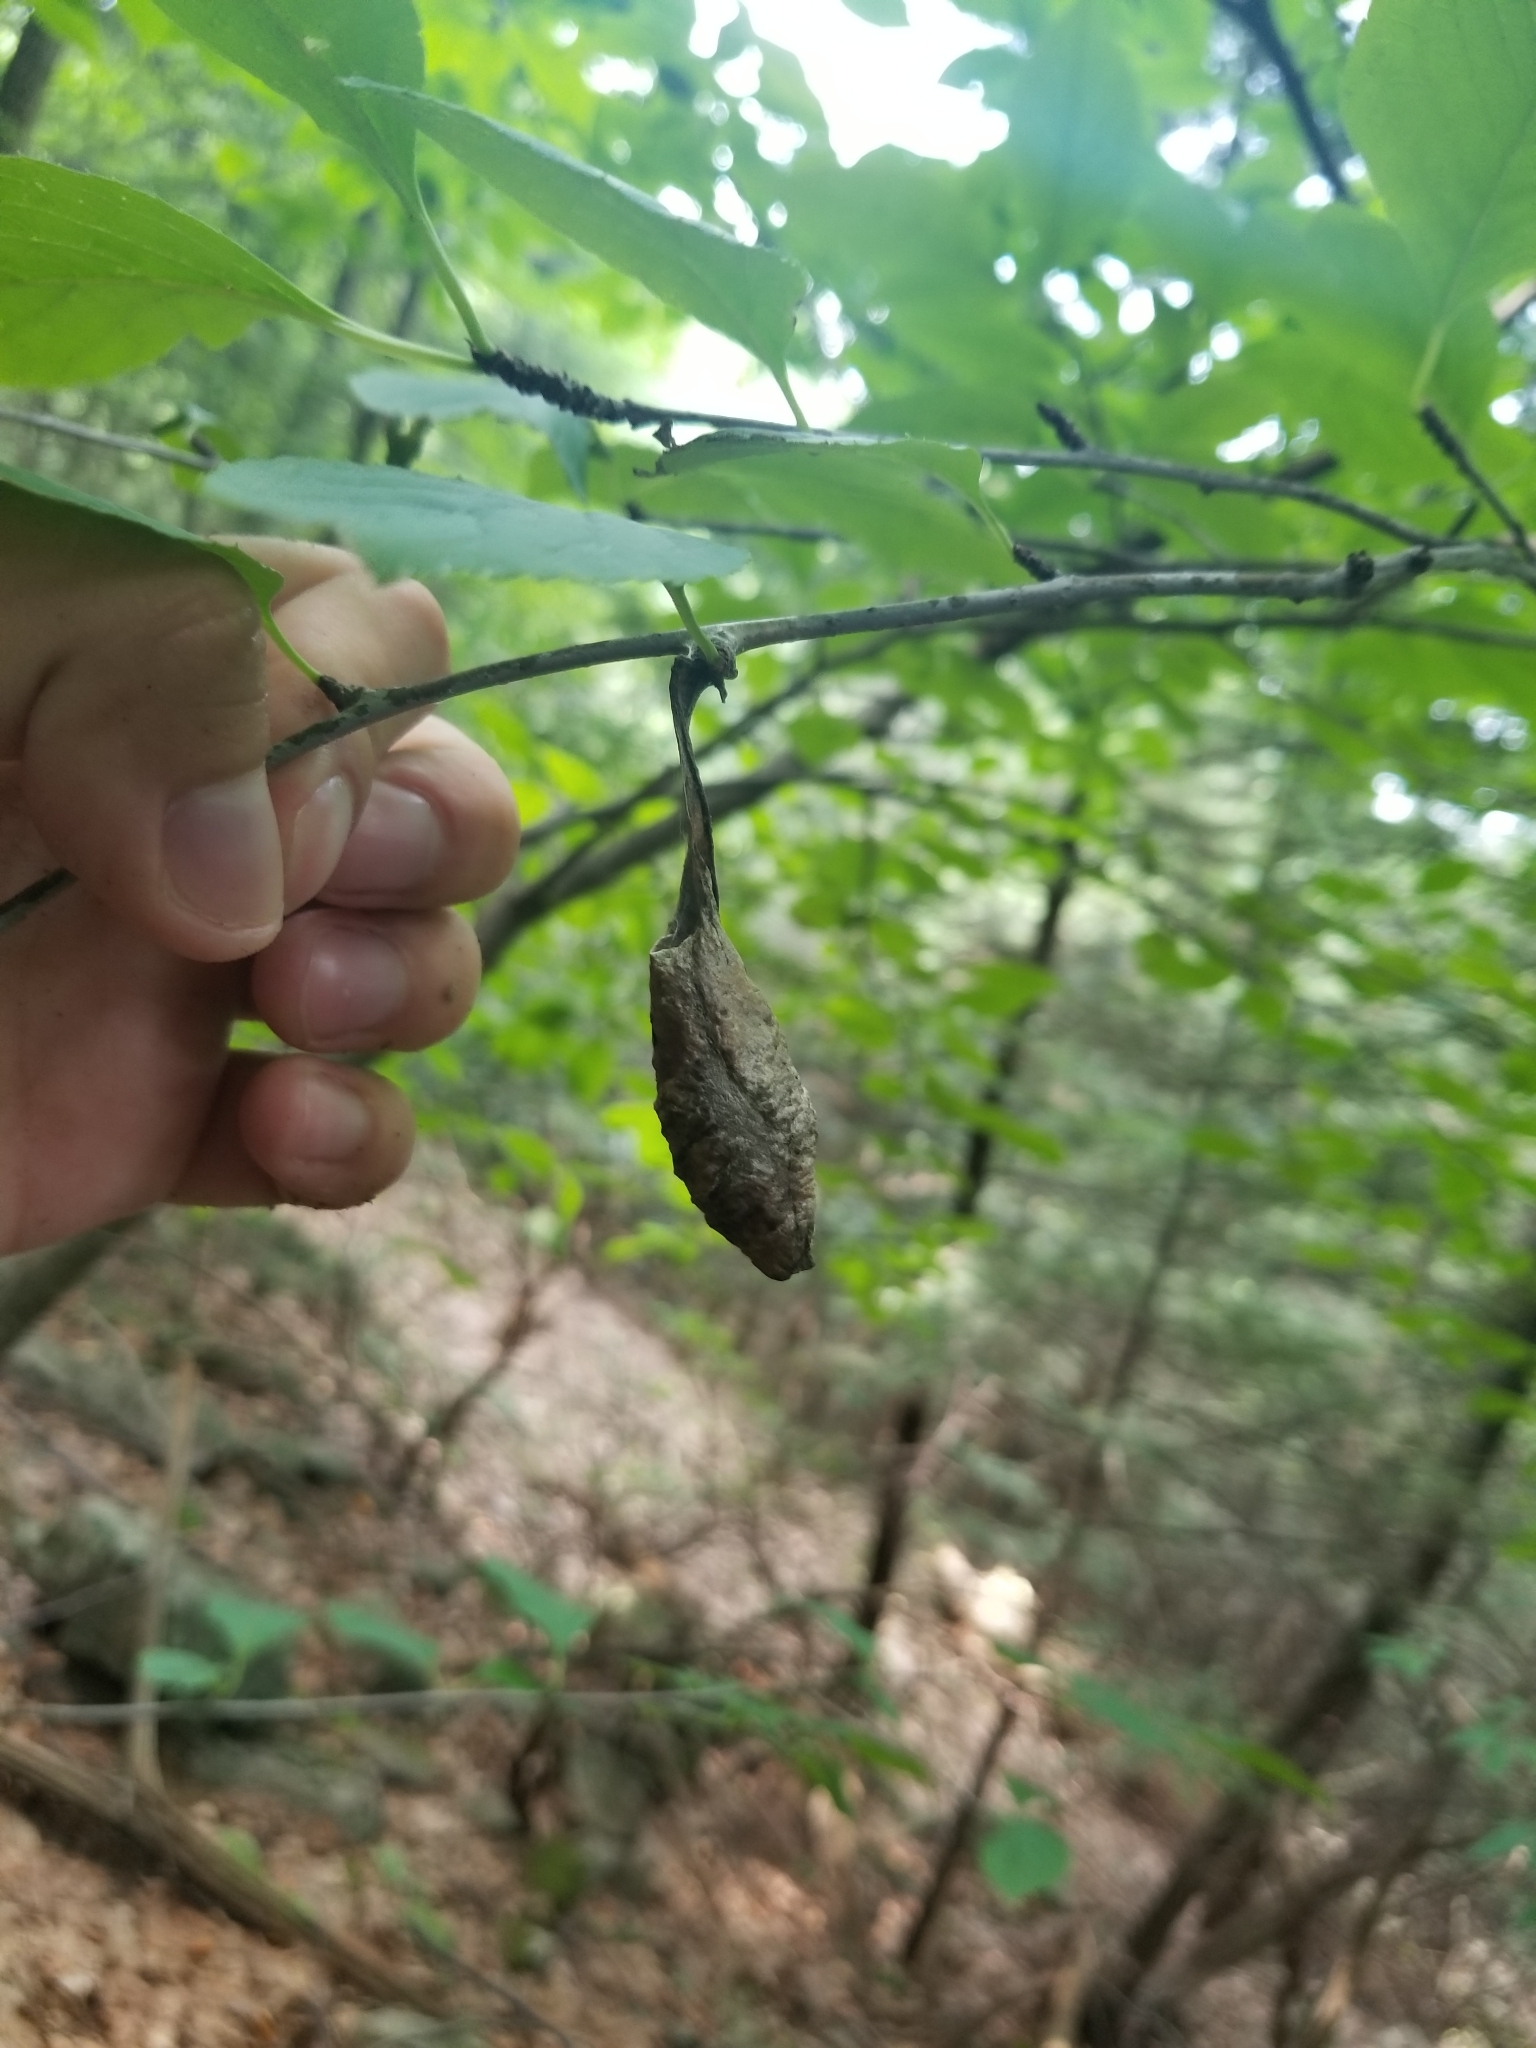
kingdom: Animalia
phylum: Arthropoda
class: Insecta
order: Lepidoptera
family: Saturniidae
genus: Callosamia
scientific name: Callosamia promethea
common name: Promethea silkmoth
